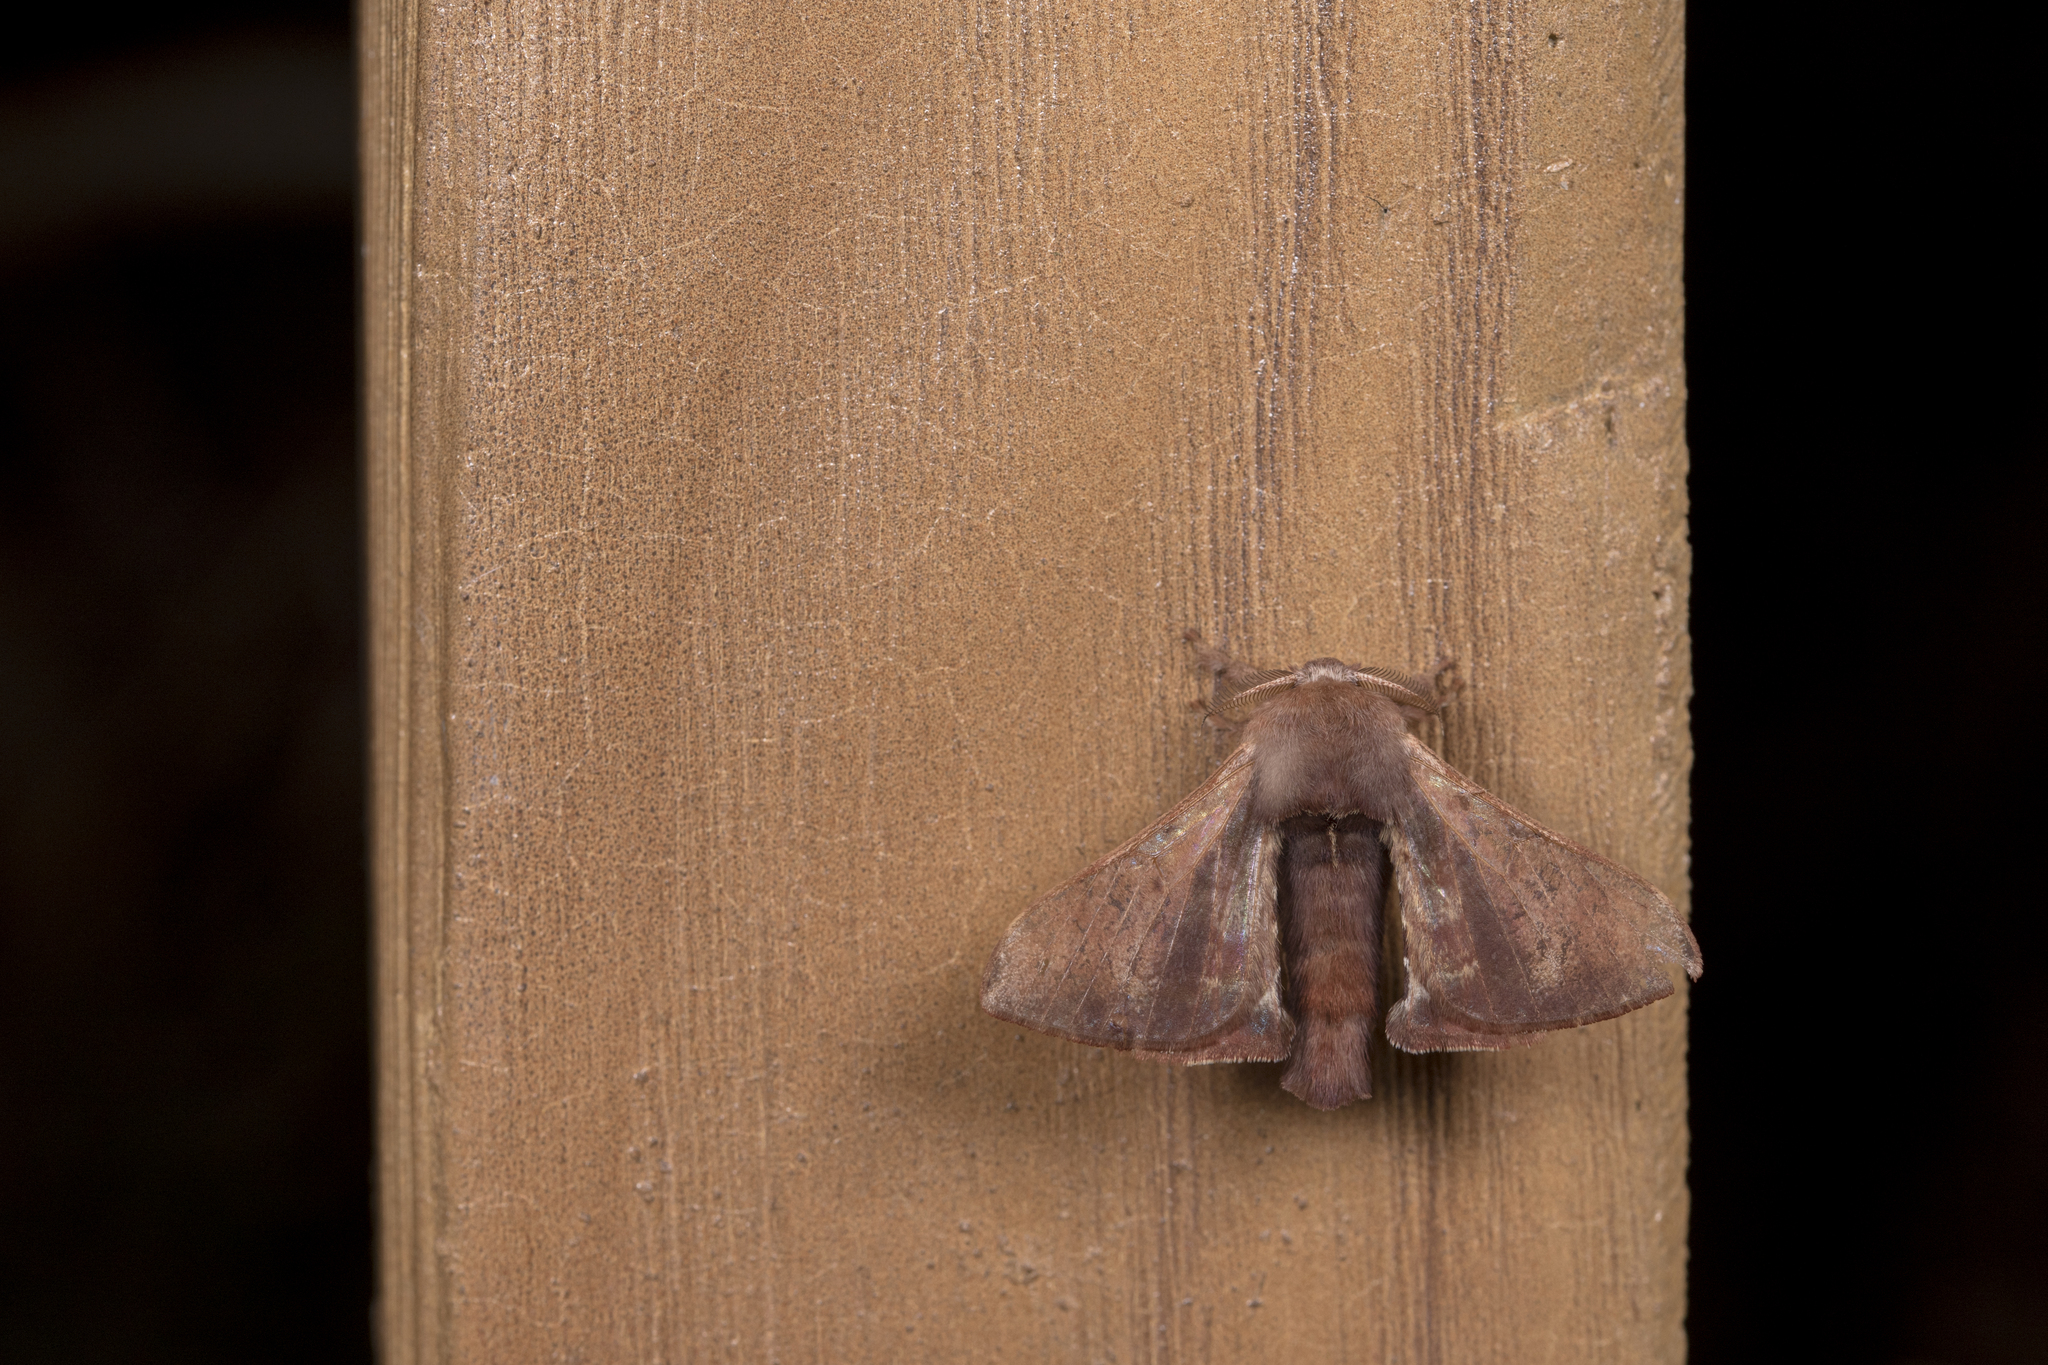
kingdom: Animalia
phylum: Arthropoda
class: Insecta
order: Lepidoptera
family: Bombycidae
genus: Triuncina
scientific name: Triuncina brunnea
